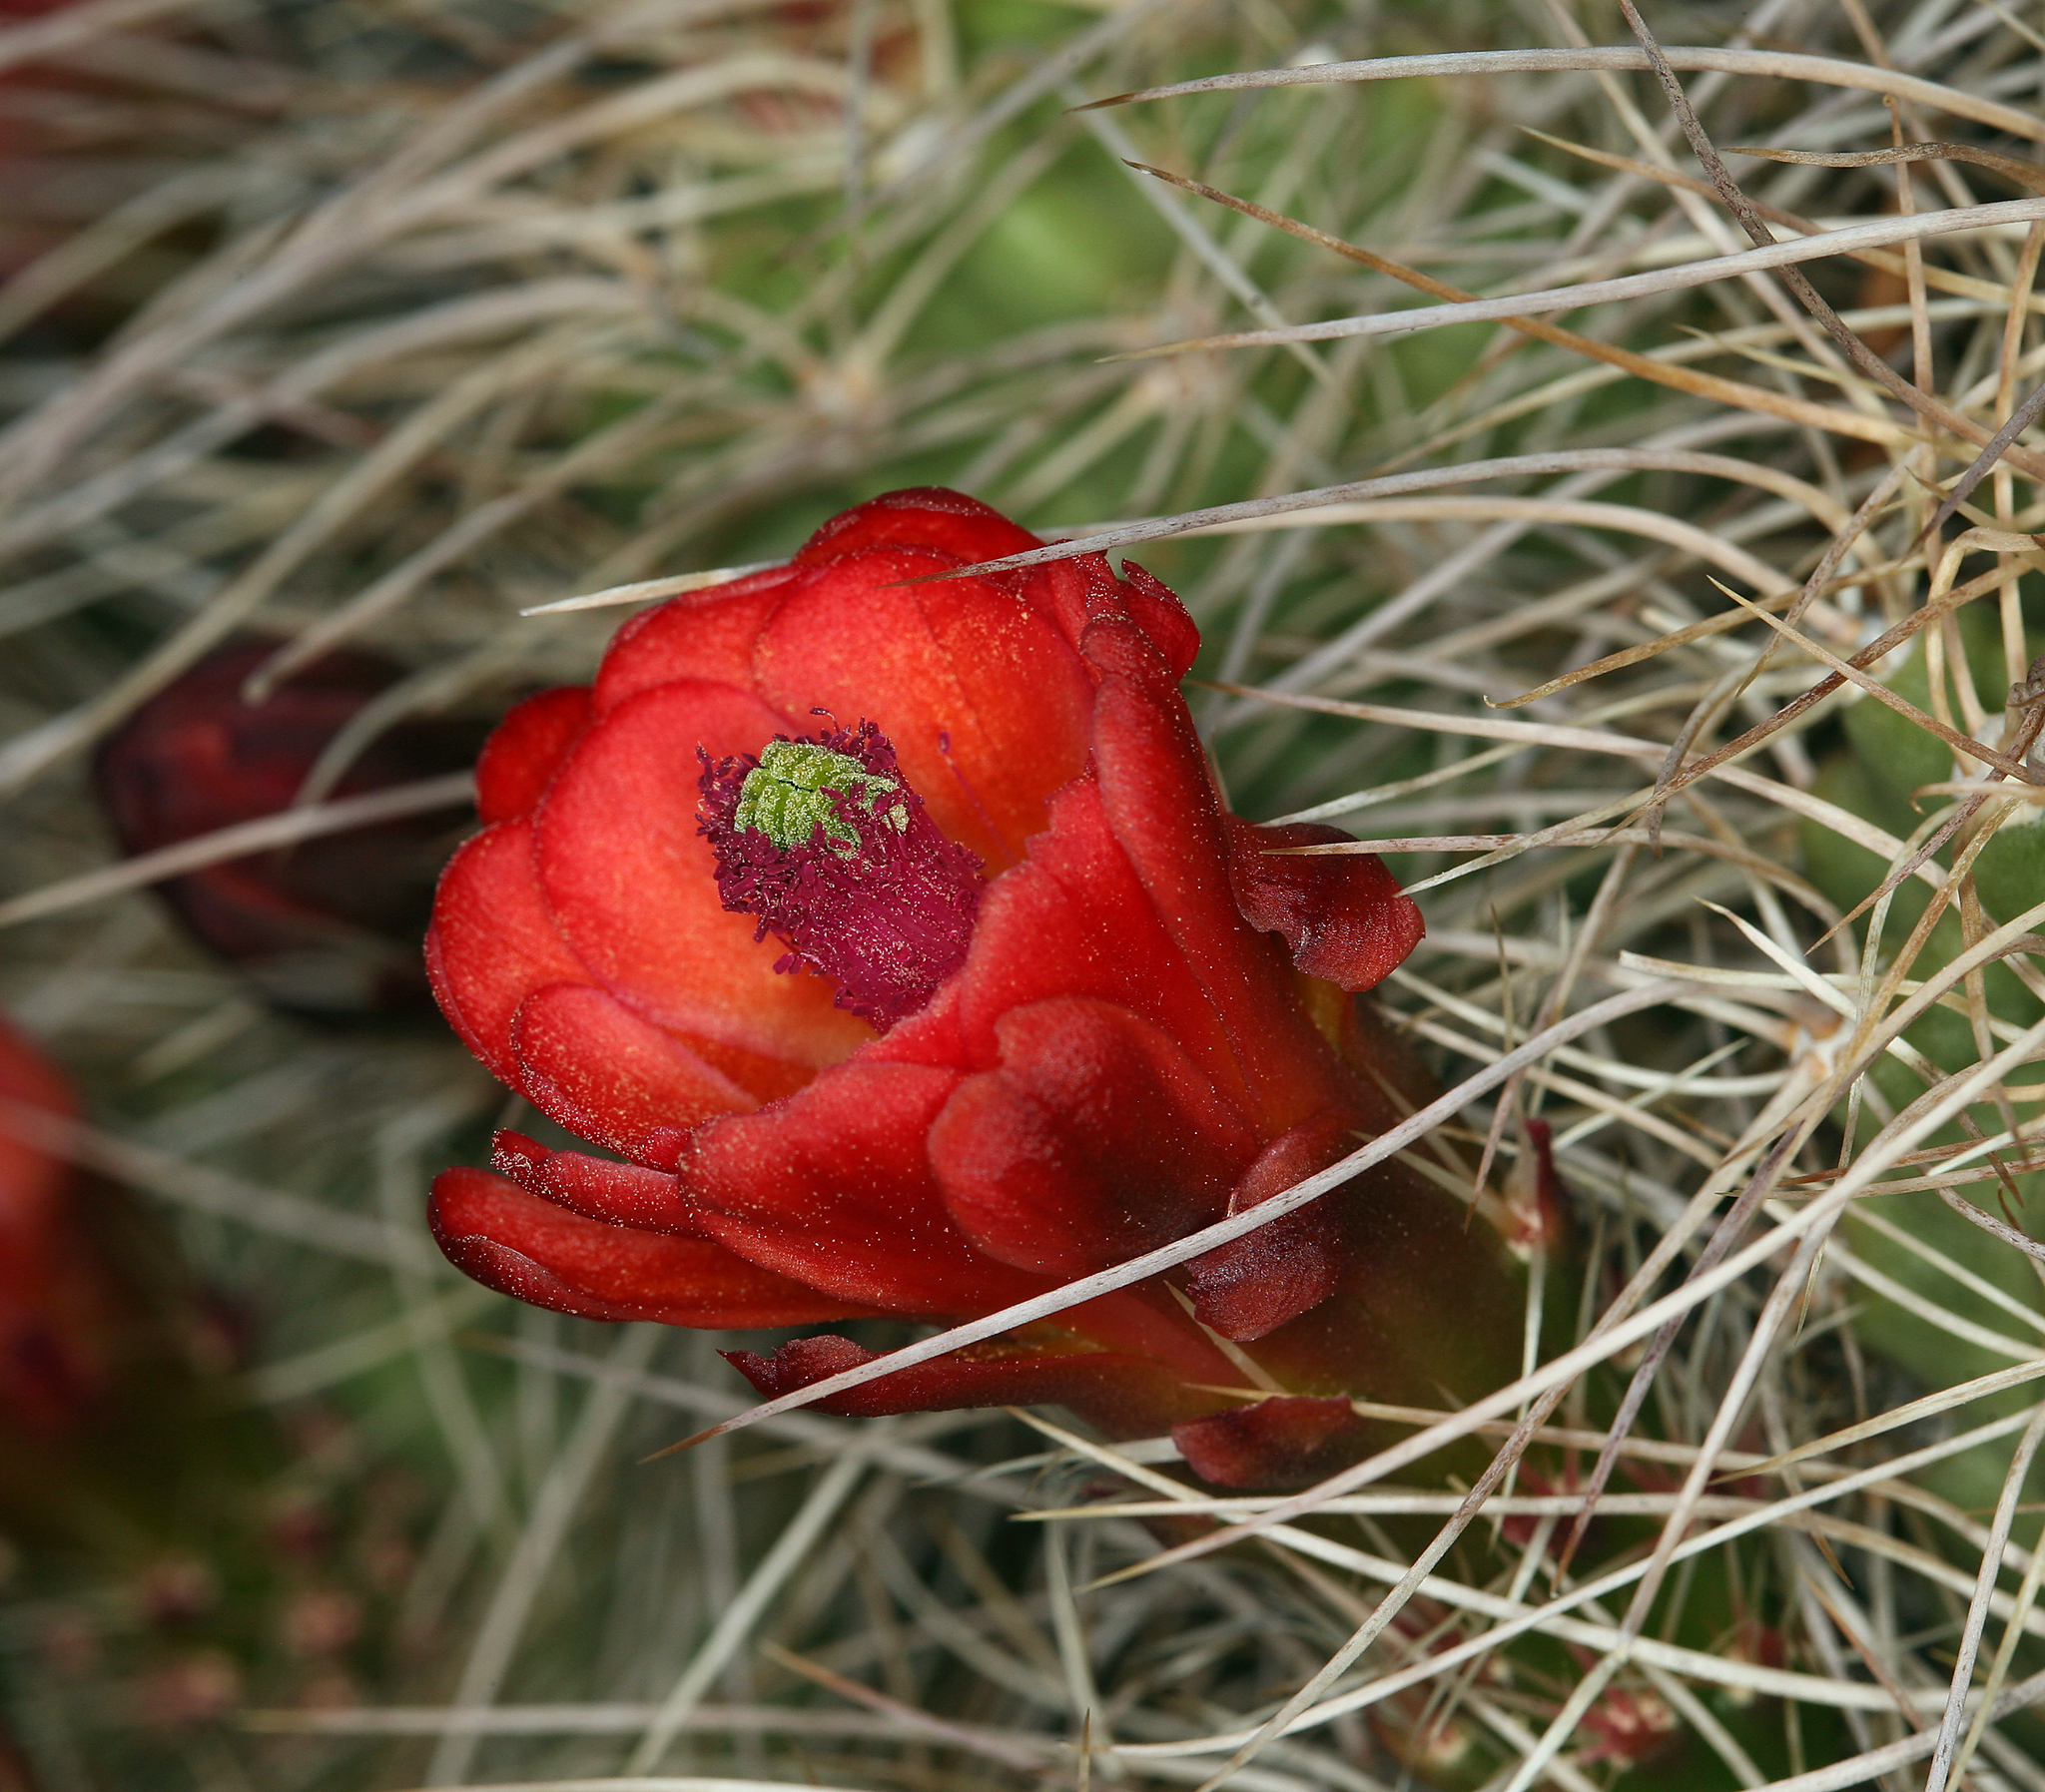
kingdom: Plantae
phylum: Tracheophyta
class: Magnoliopsida
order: Caryophyllales
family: Cactaceae
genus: Echinocereus
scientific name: Echinocereus triglochidiatus
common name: Claretcup hedgehog
